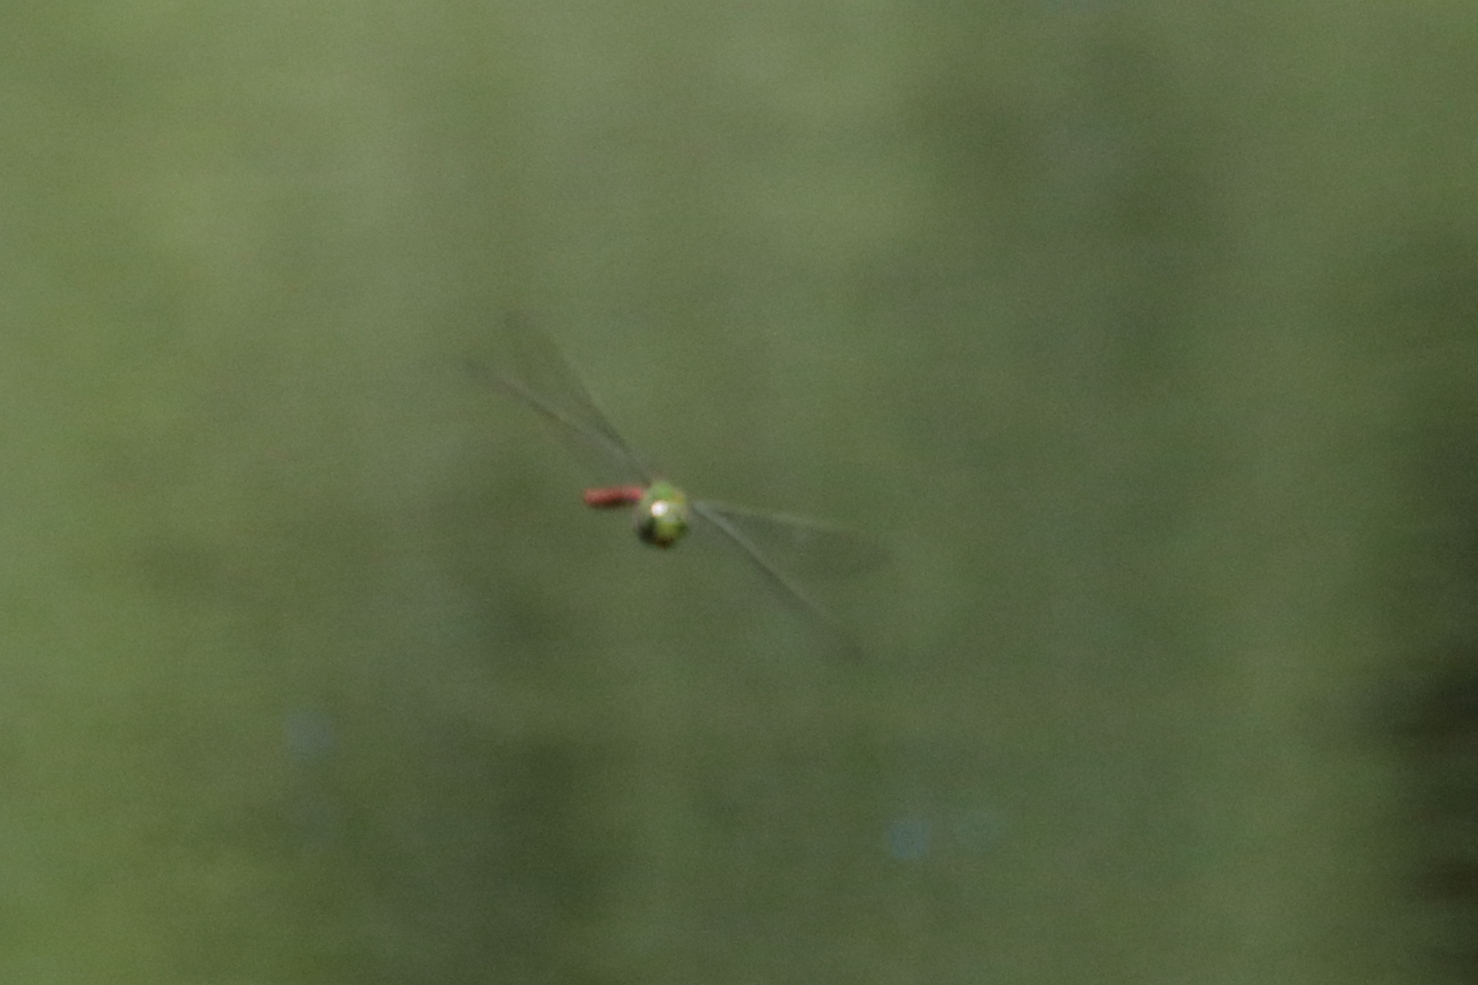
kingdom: Animalia
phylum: Arthropoda
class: Insecta
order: Odonata
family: Aeshnidae
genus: Anax
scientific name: Anax longipes
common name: Comet darner
